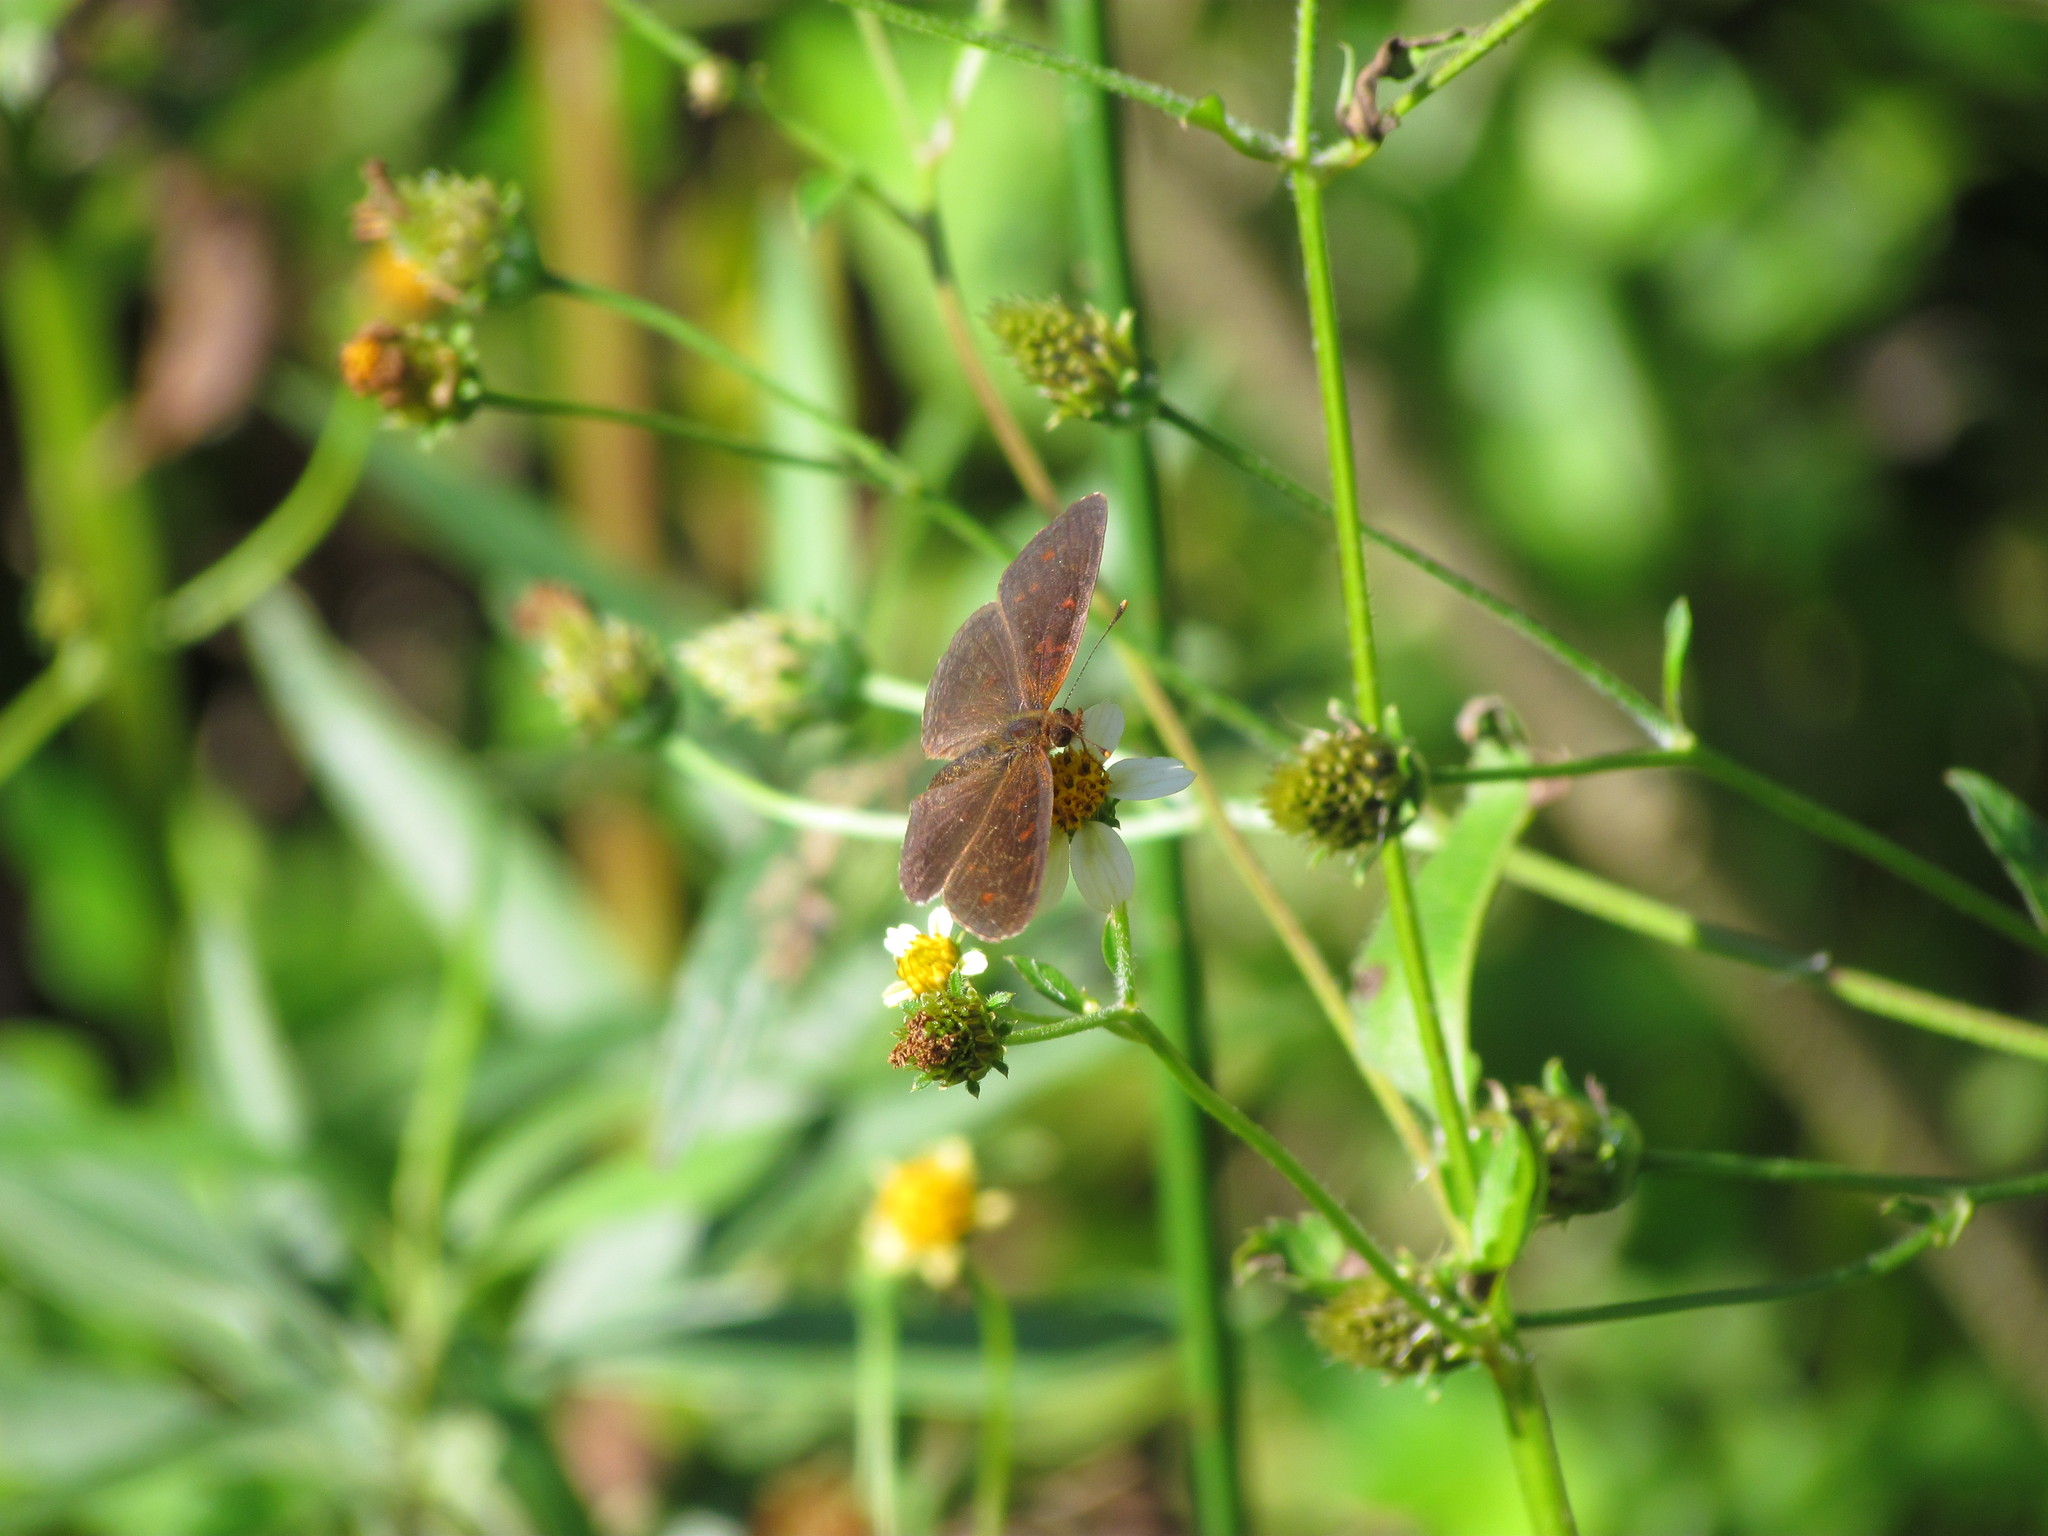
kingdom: Animalia
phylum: Arthropoda
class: Insecta
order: Lepidoptera
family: Nymphalidae
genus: Ortilia
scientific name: Ortilia velica
